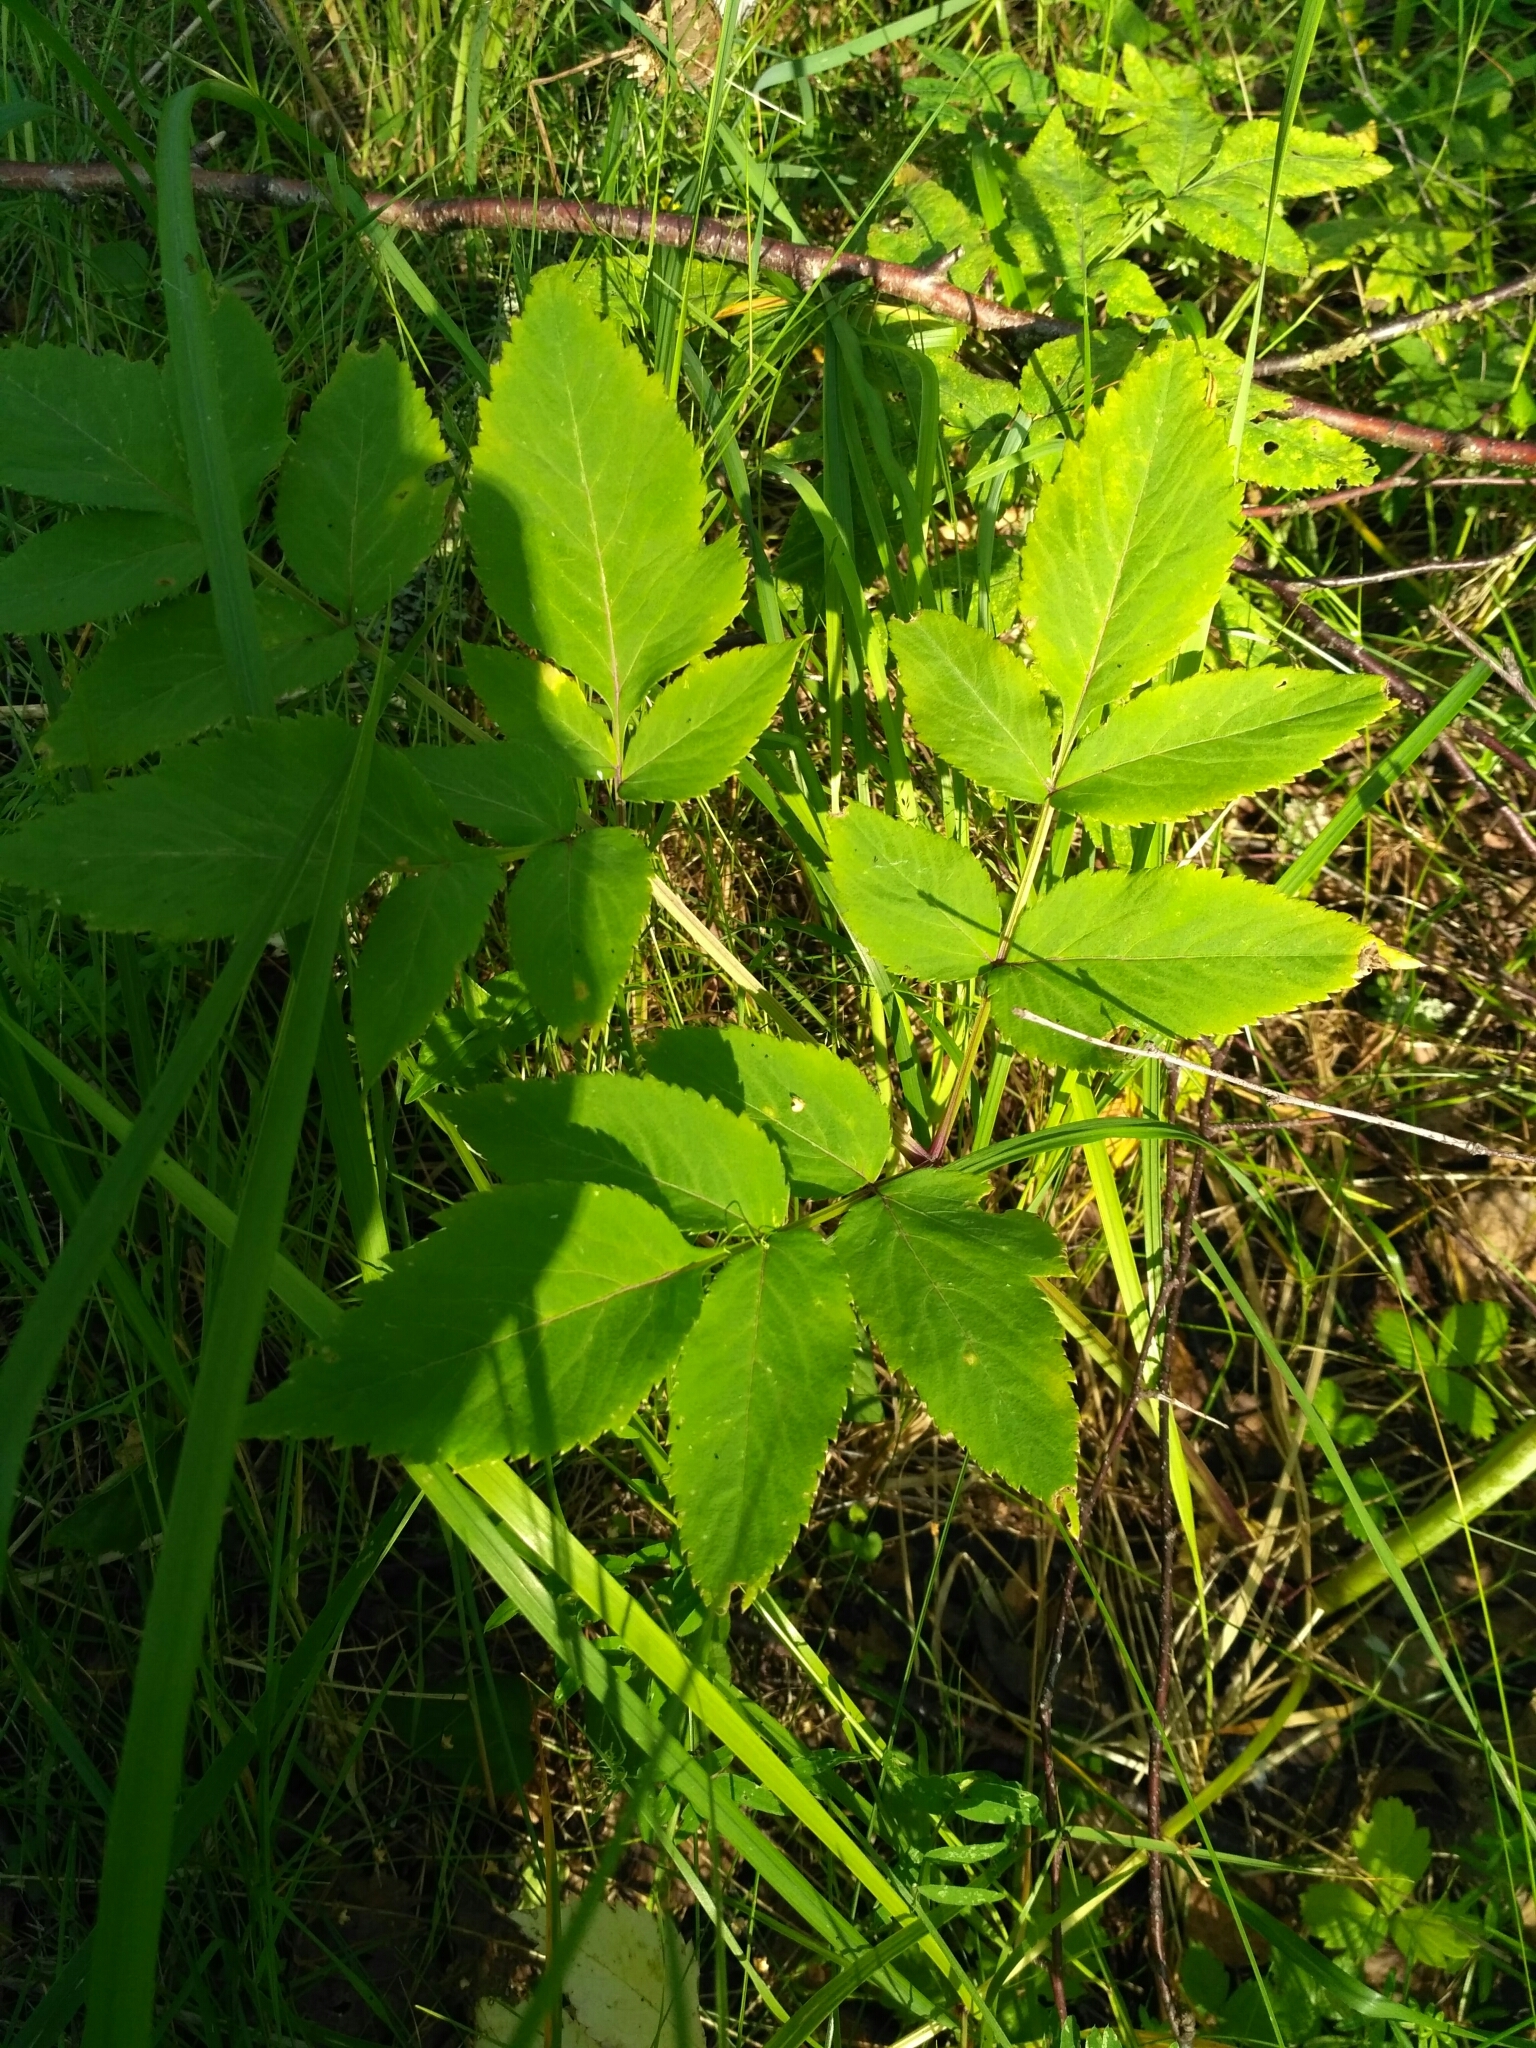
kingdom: Plantae
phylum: Tracheophyta
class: Magnoliopsida
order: Apiales
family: Apiaceae
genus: Angelica
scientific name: Angelica sylvestris
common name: Wild angelica
